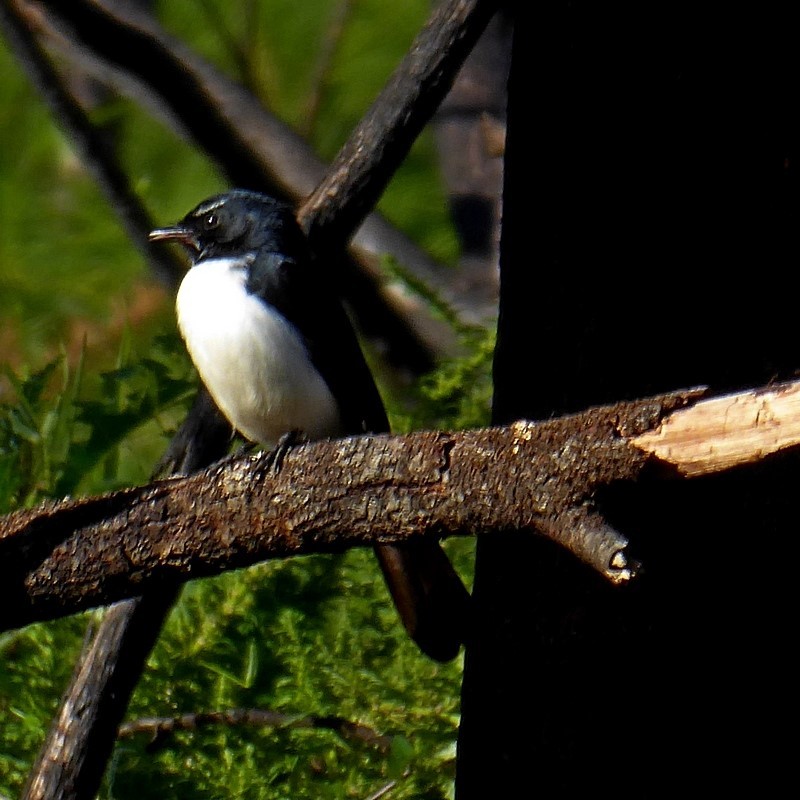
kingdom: Animalia
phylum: Chordata
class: Aves
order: Passeriformes
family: Rhipiduridae
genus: Rhipidura
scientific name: Rhipidura leucophrys
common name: Willie wagtail
